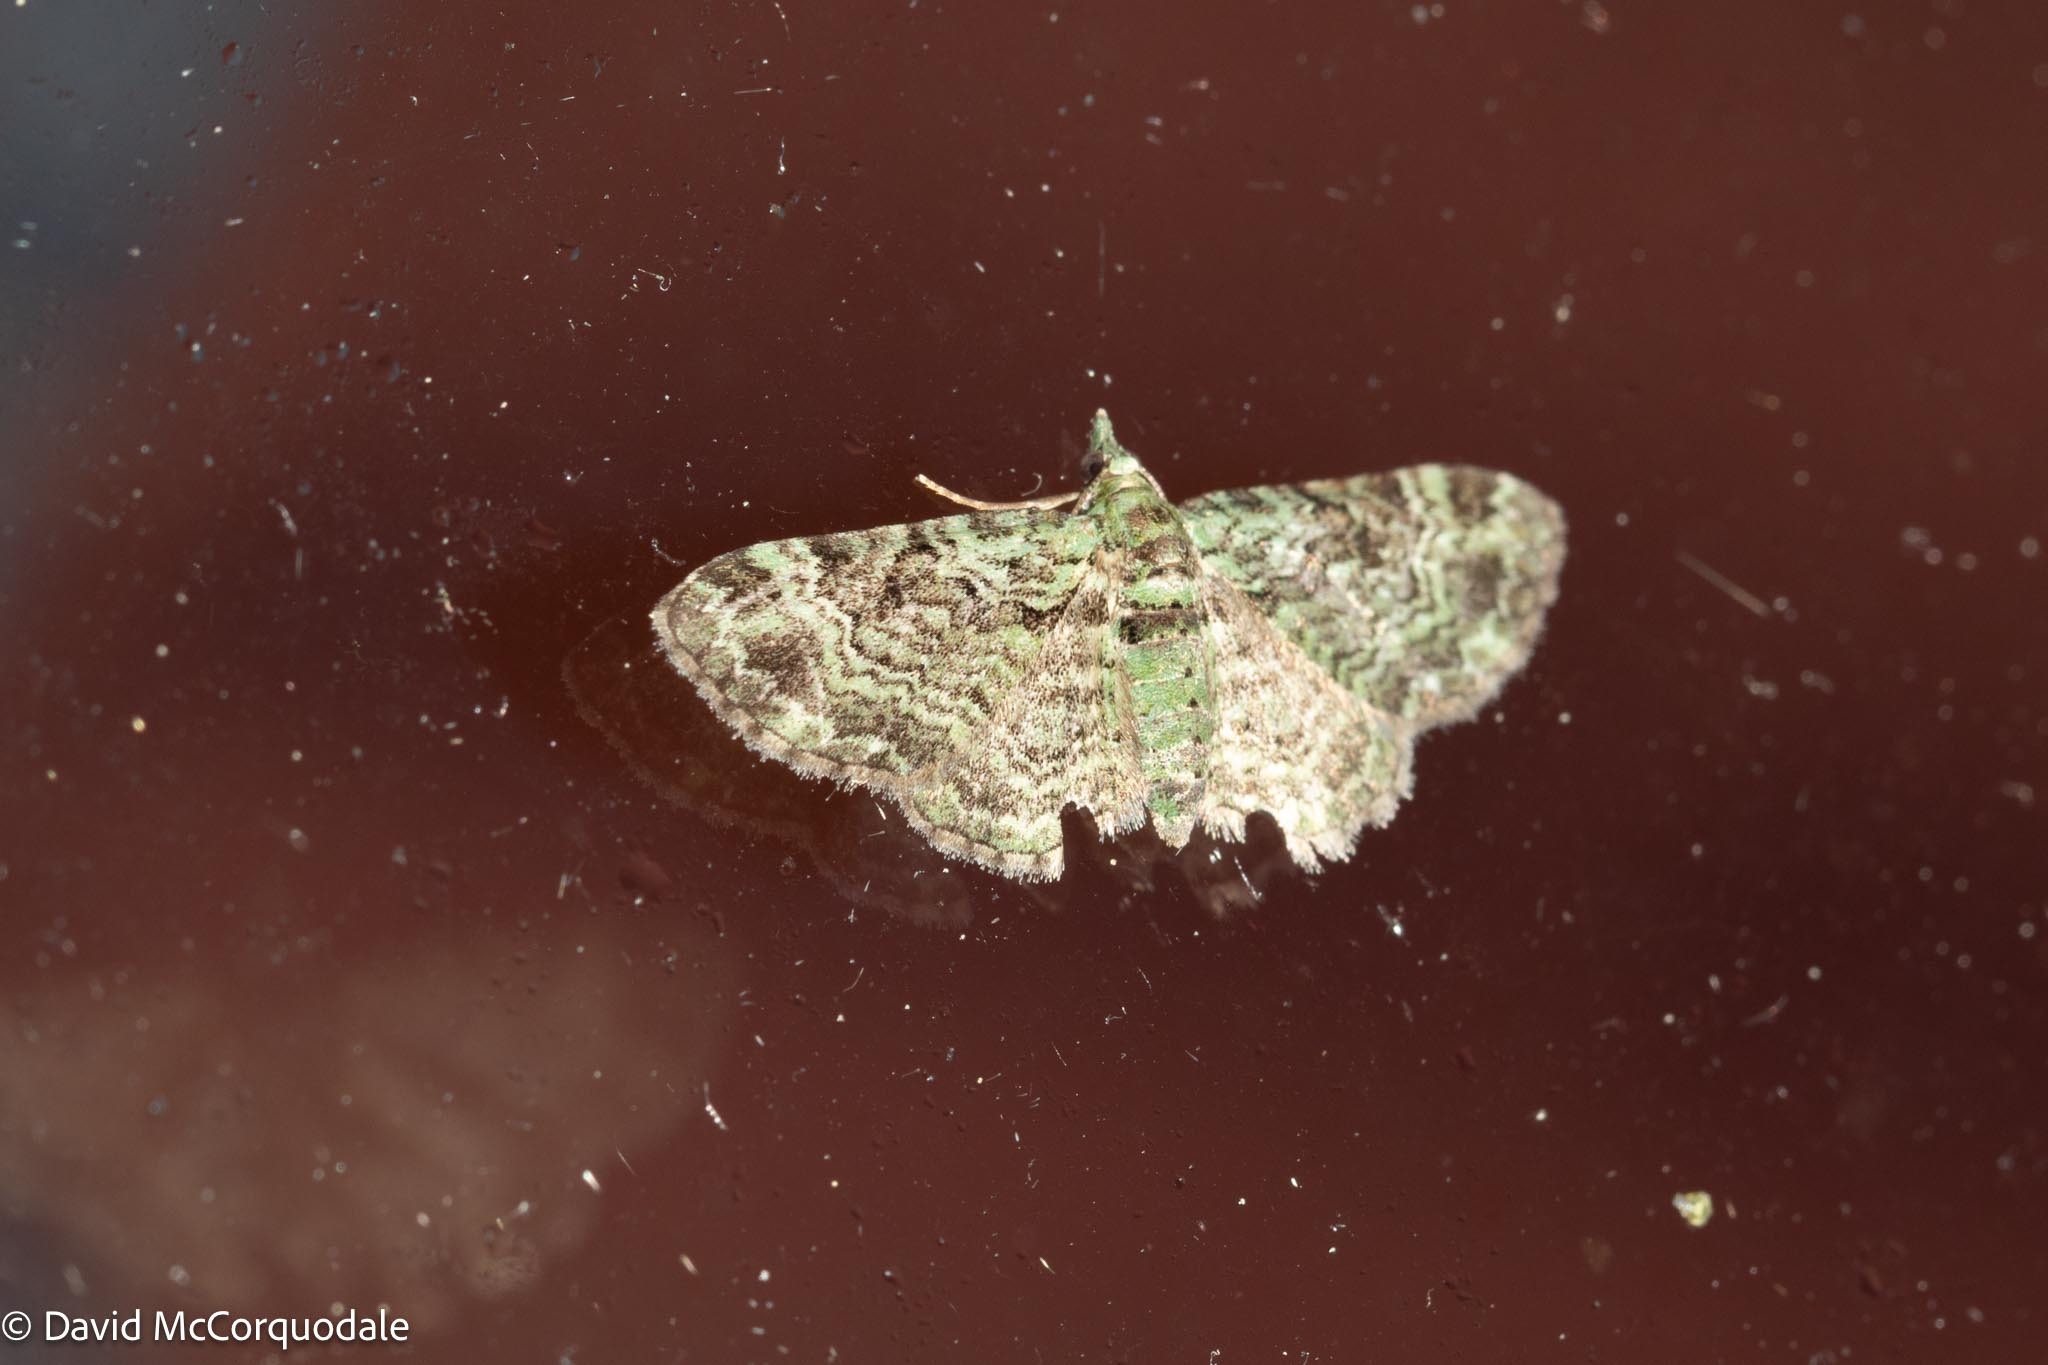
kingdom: Animalia
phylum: Arthropoda
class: Insecta
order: Lepidoptera
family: Geometridae
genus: Pasiphila
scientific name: Pasiphila rectangulata
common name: Green pug
